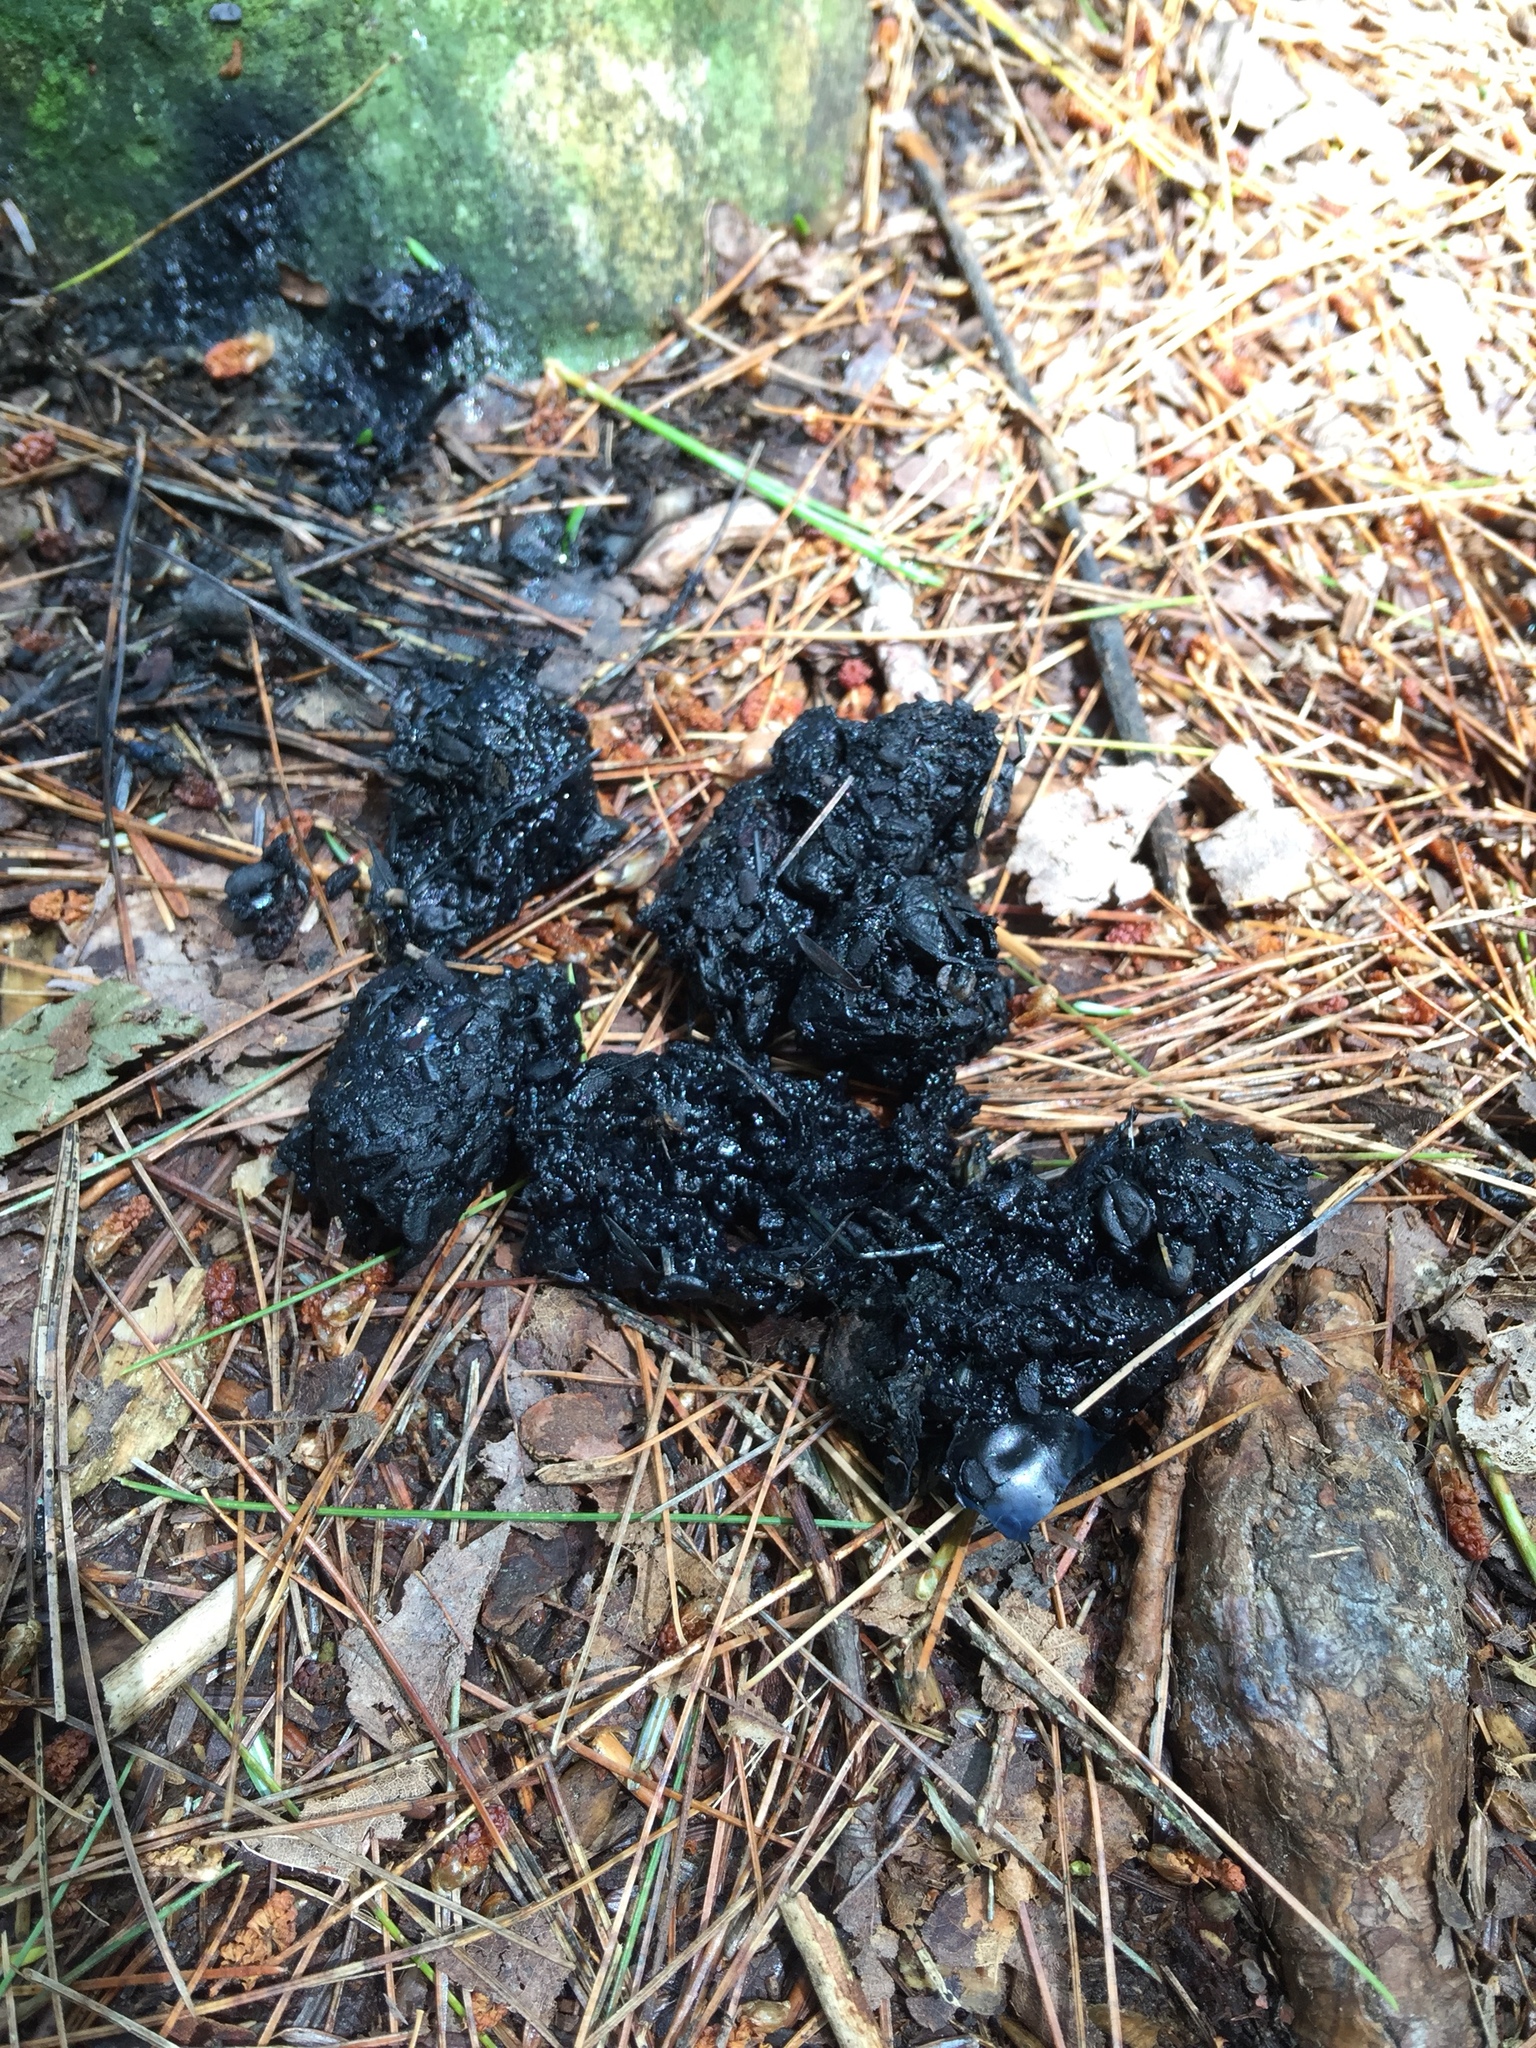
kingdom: Animalia
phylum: Chordata
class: Mammalia
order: Carnivora
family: Ursidae
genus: Ursus
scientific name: Ursus americanus
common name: American black bear
